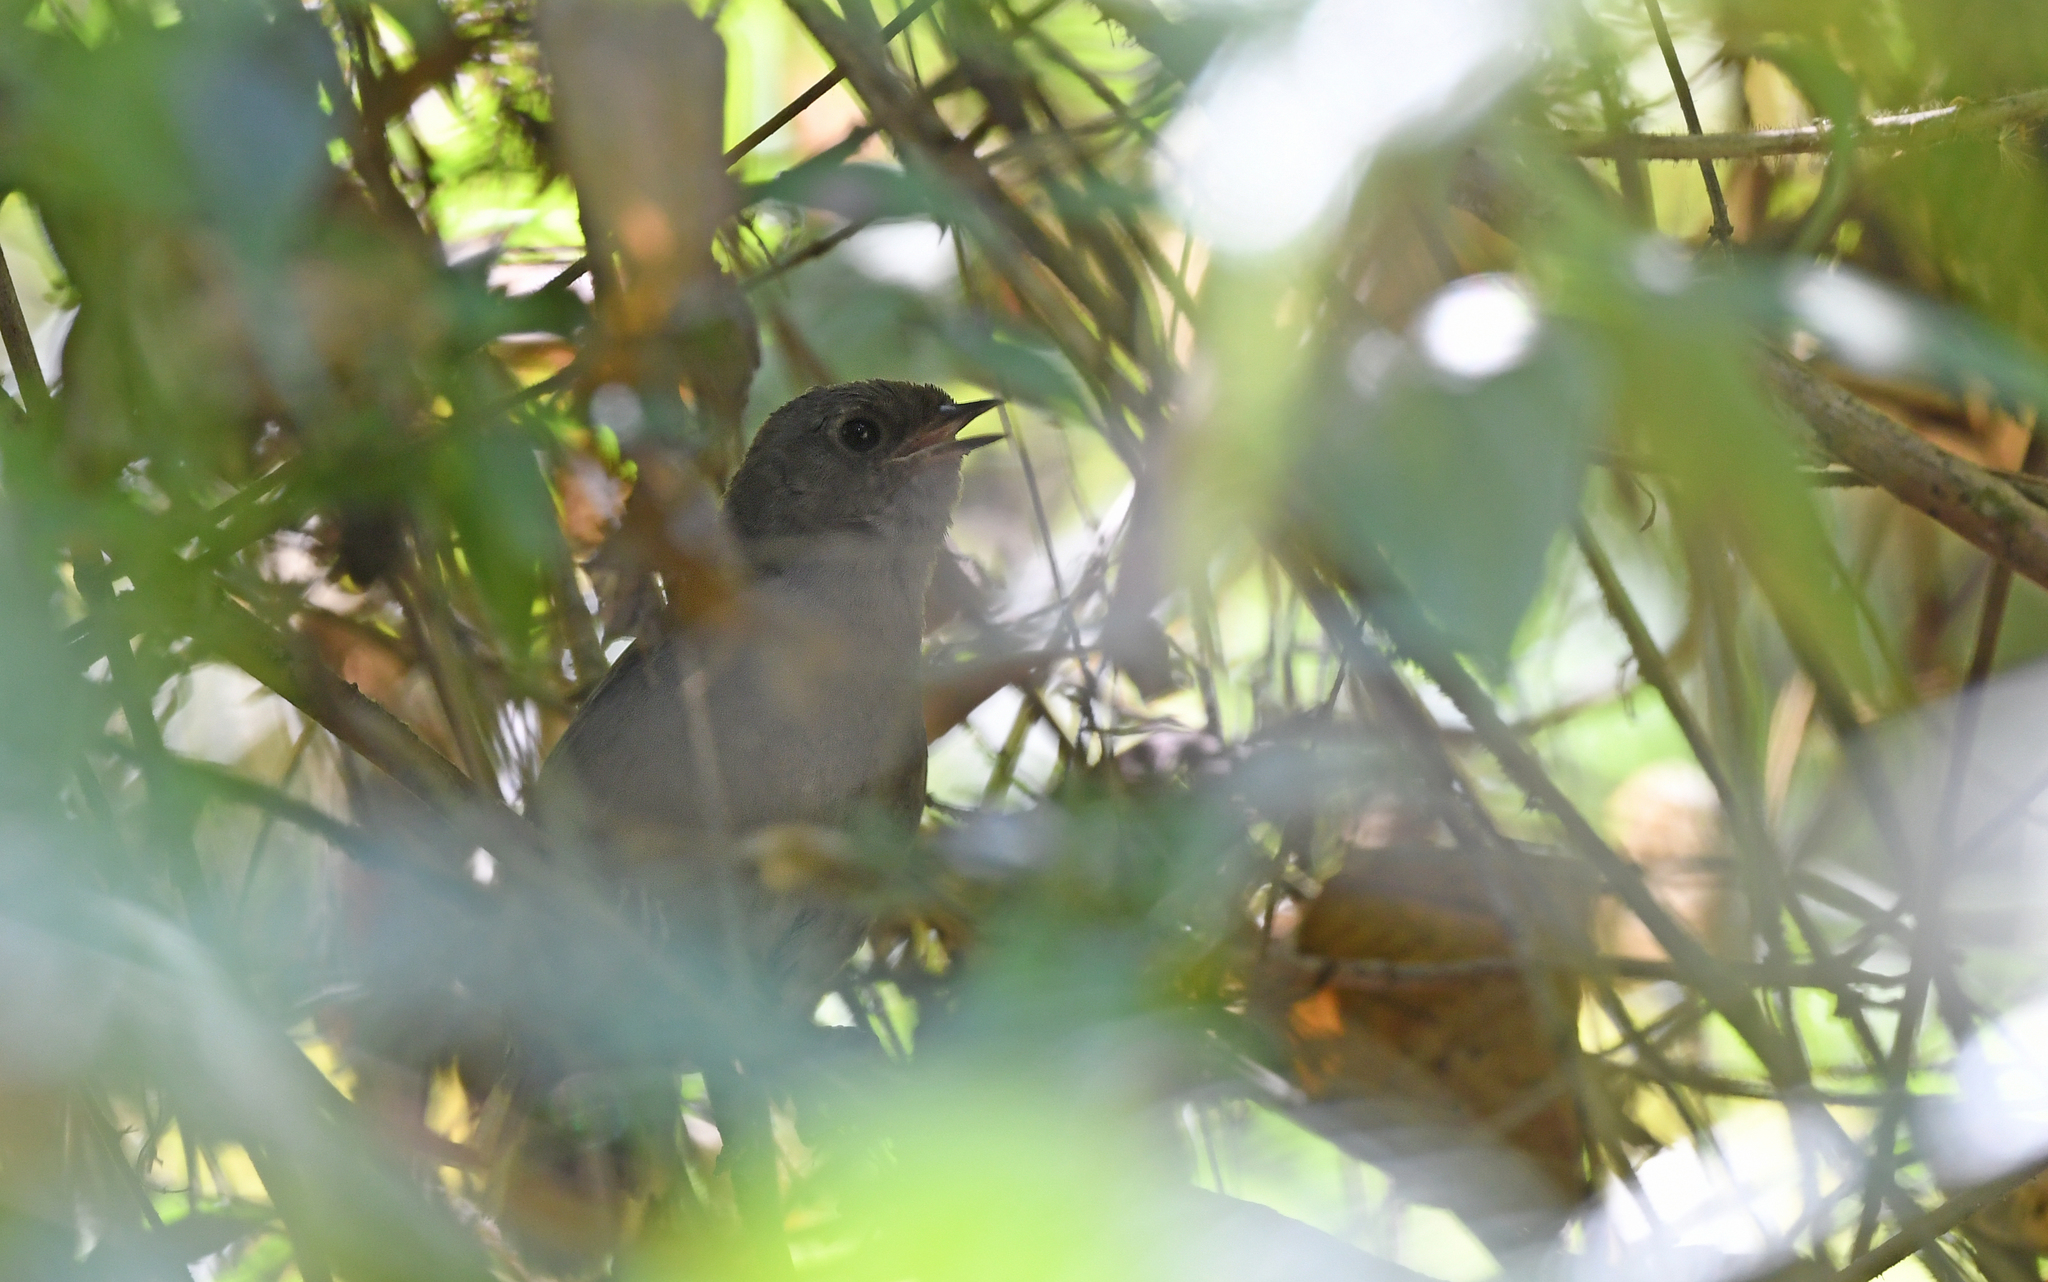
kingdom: Animalia
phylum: Chordata
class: Aves
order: Passeriformes
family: Rhinocryptidae
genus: Scytalopus
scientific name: Scytalopus perijanus
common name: Perija tapaculo
